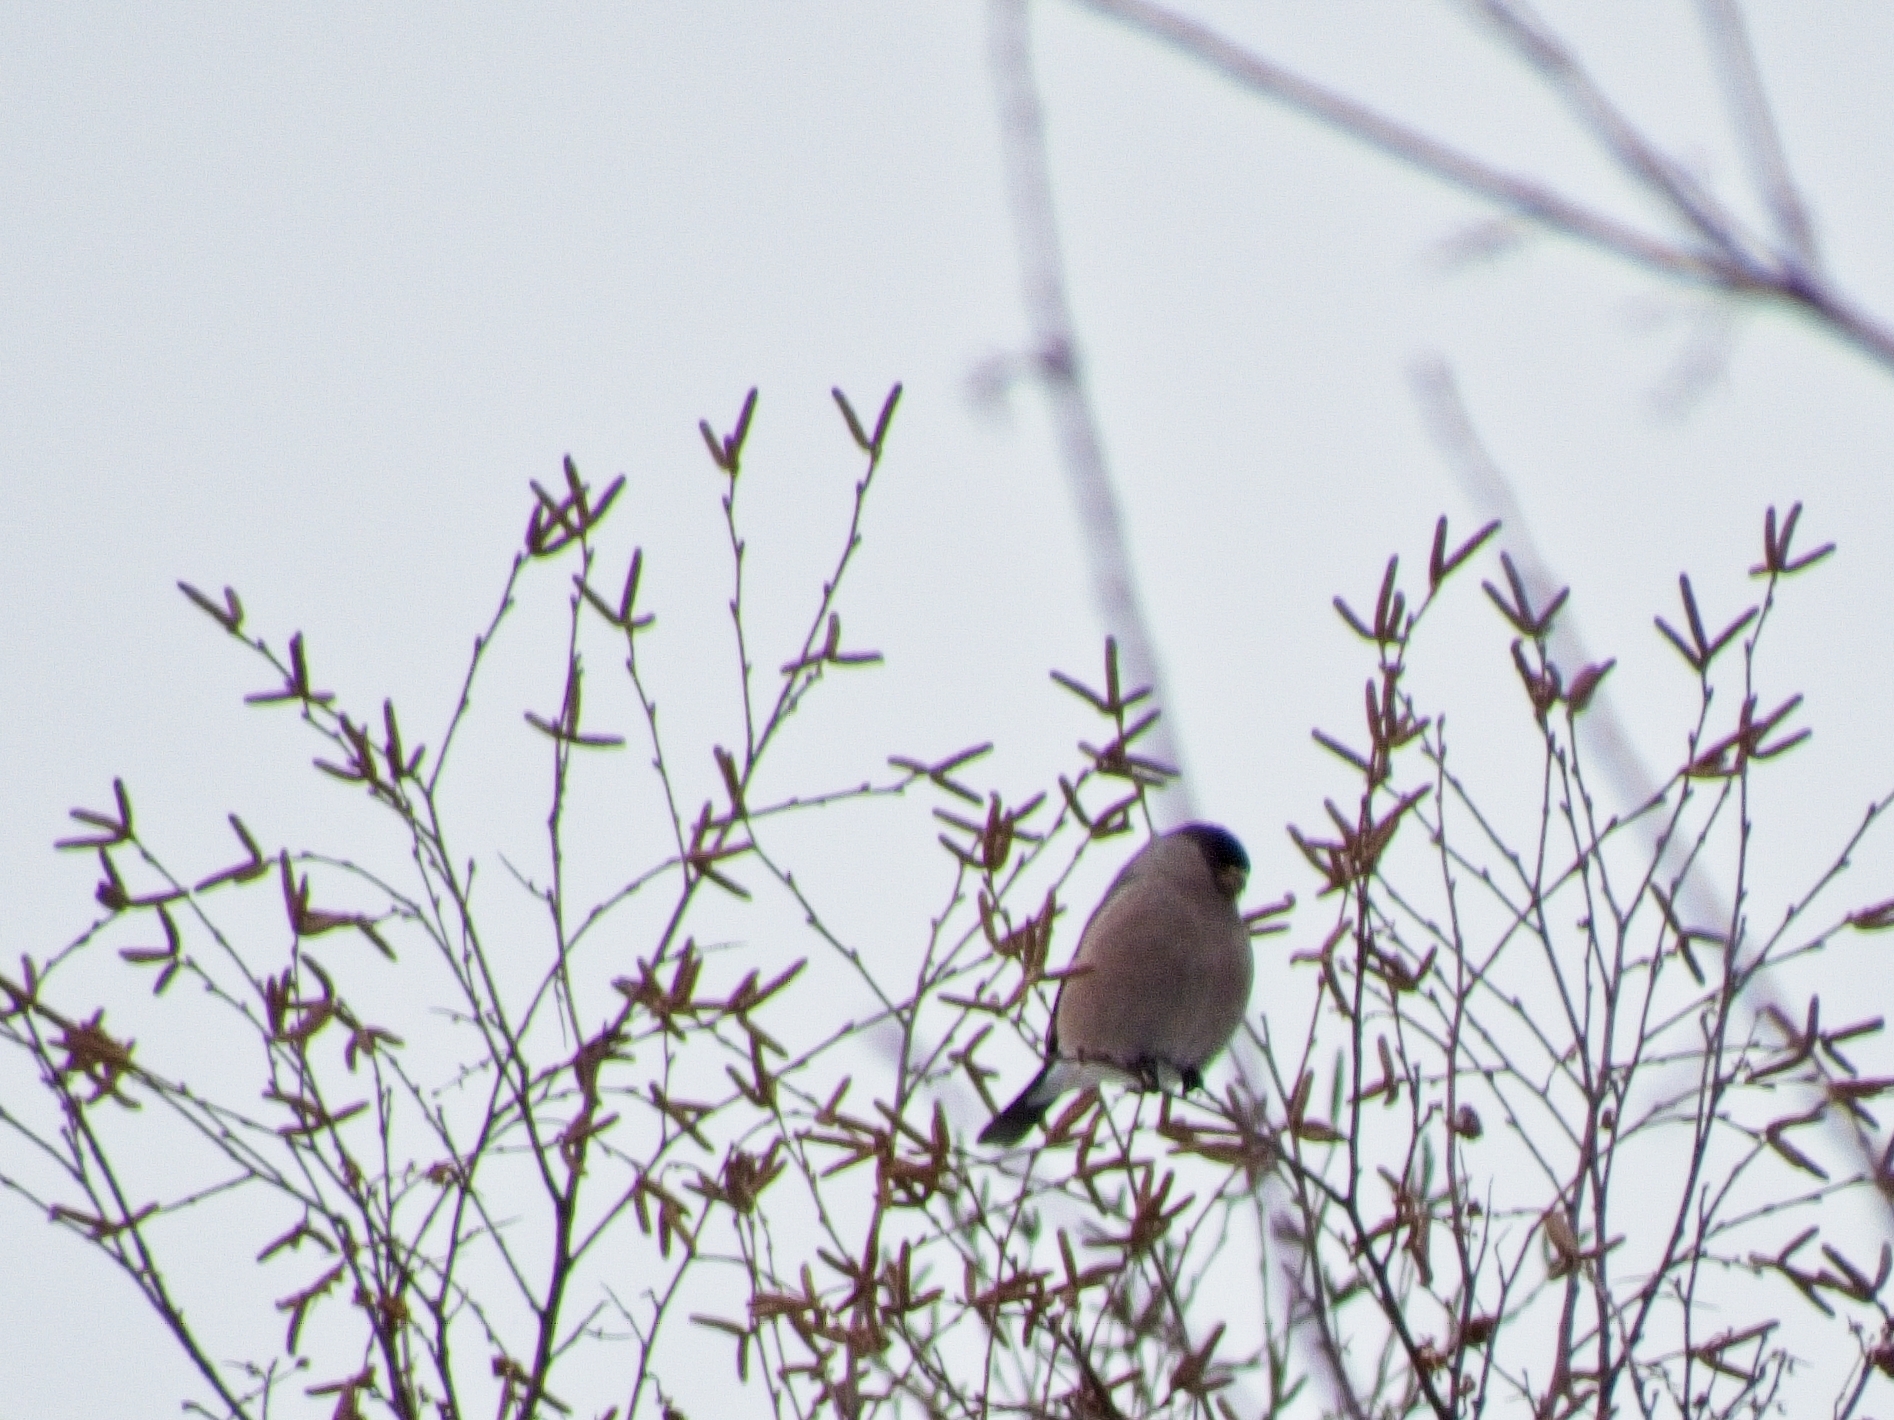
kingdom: Animalia
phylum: Chordata
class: Aves
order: Passeriformes
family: Fringillidae
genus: Pyrrhula
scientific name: Pyrrhula pyrrhula
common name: Eurasian bullfinch
